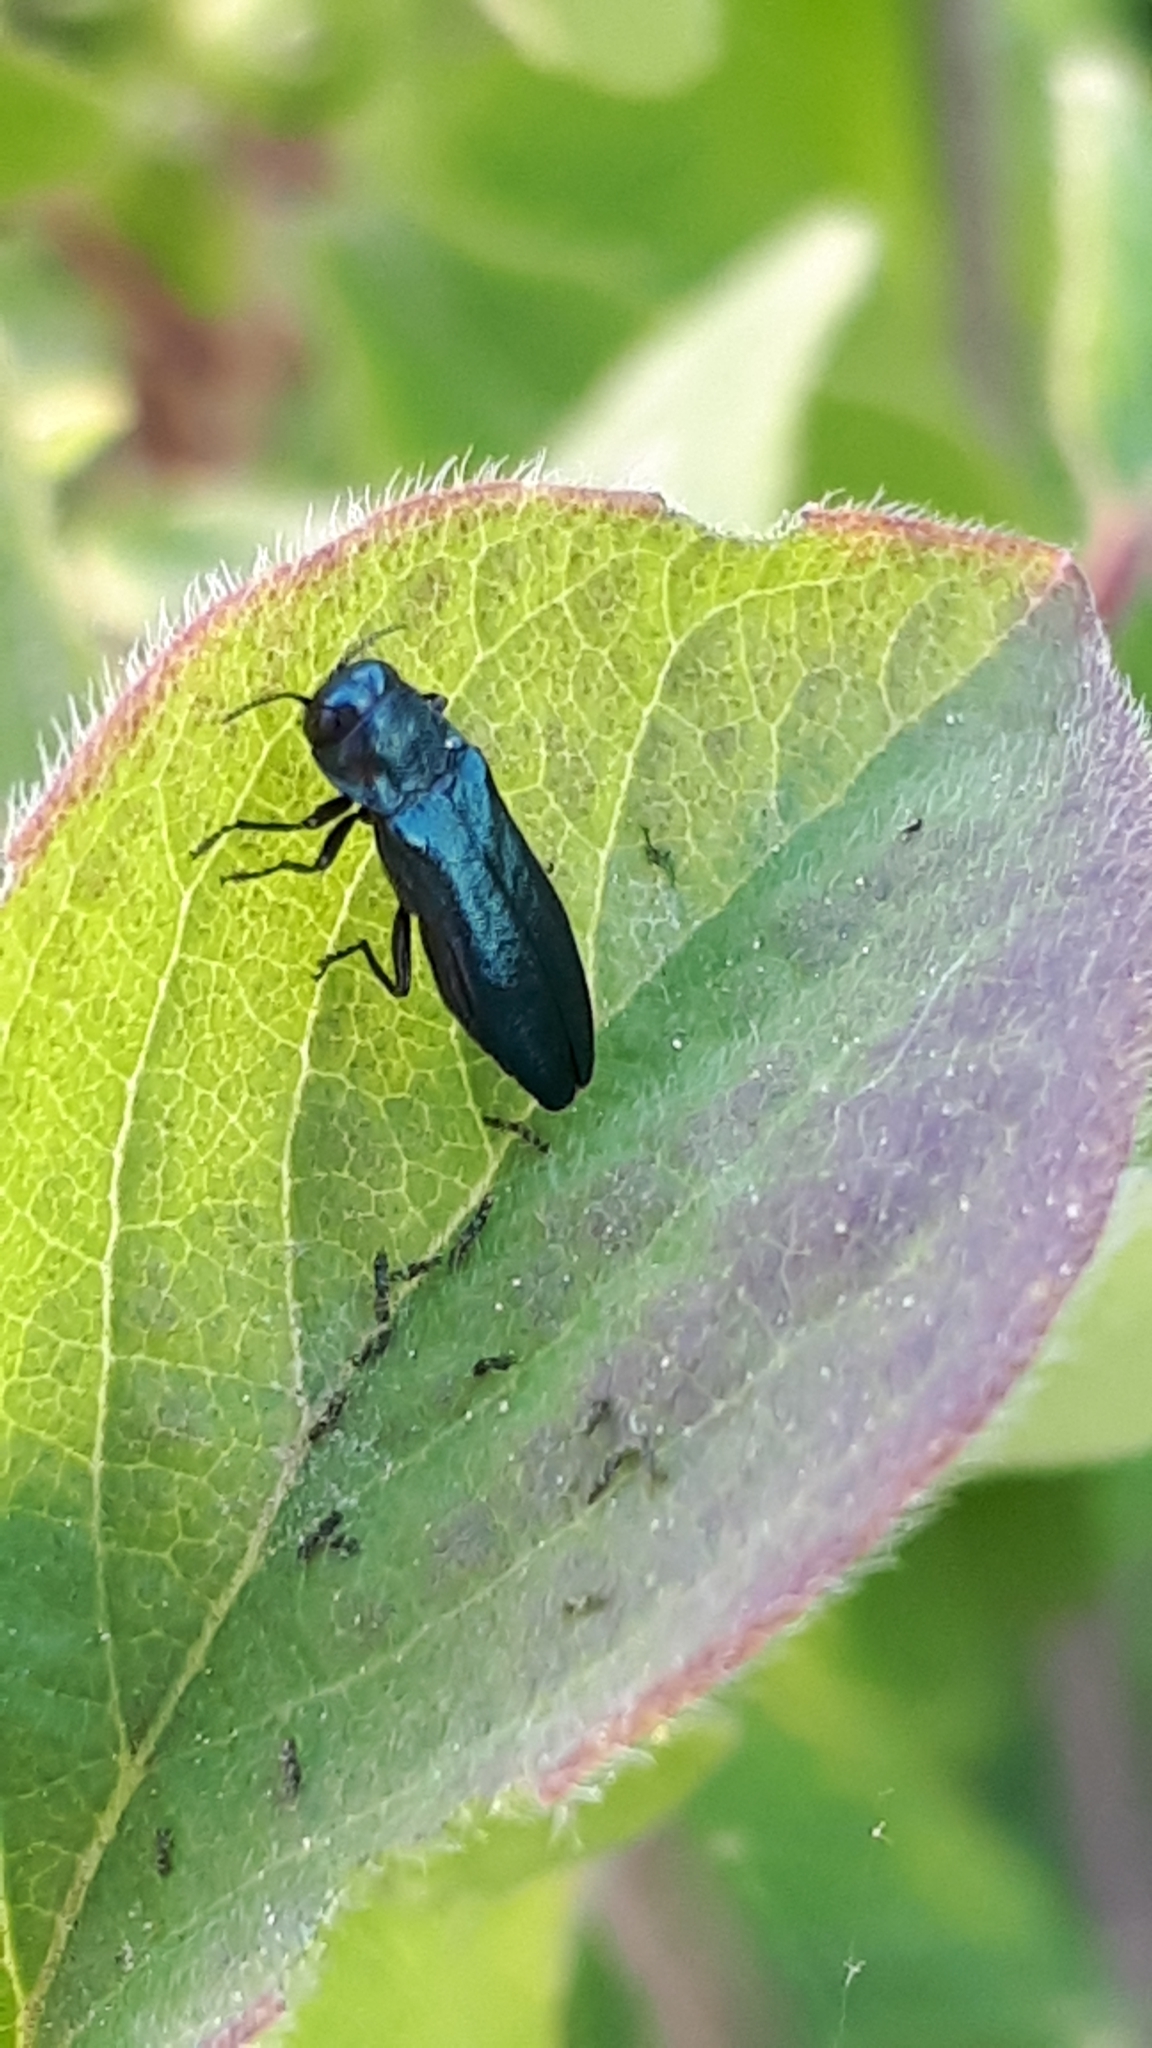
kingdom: Animalia
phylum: Arthropoda
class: Insecta
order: Coleoptera
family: Buprestidae
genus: Agrilus
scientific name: Agrilus cyanescens
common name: Bluish borer beetle
